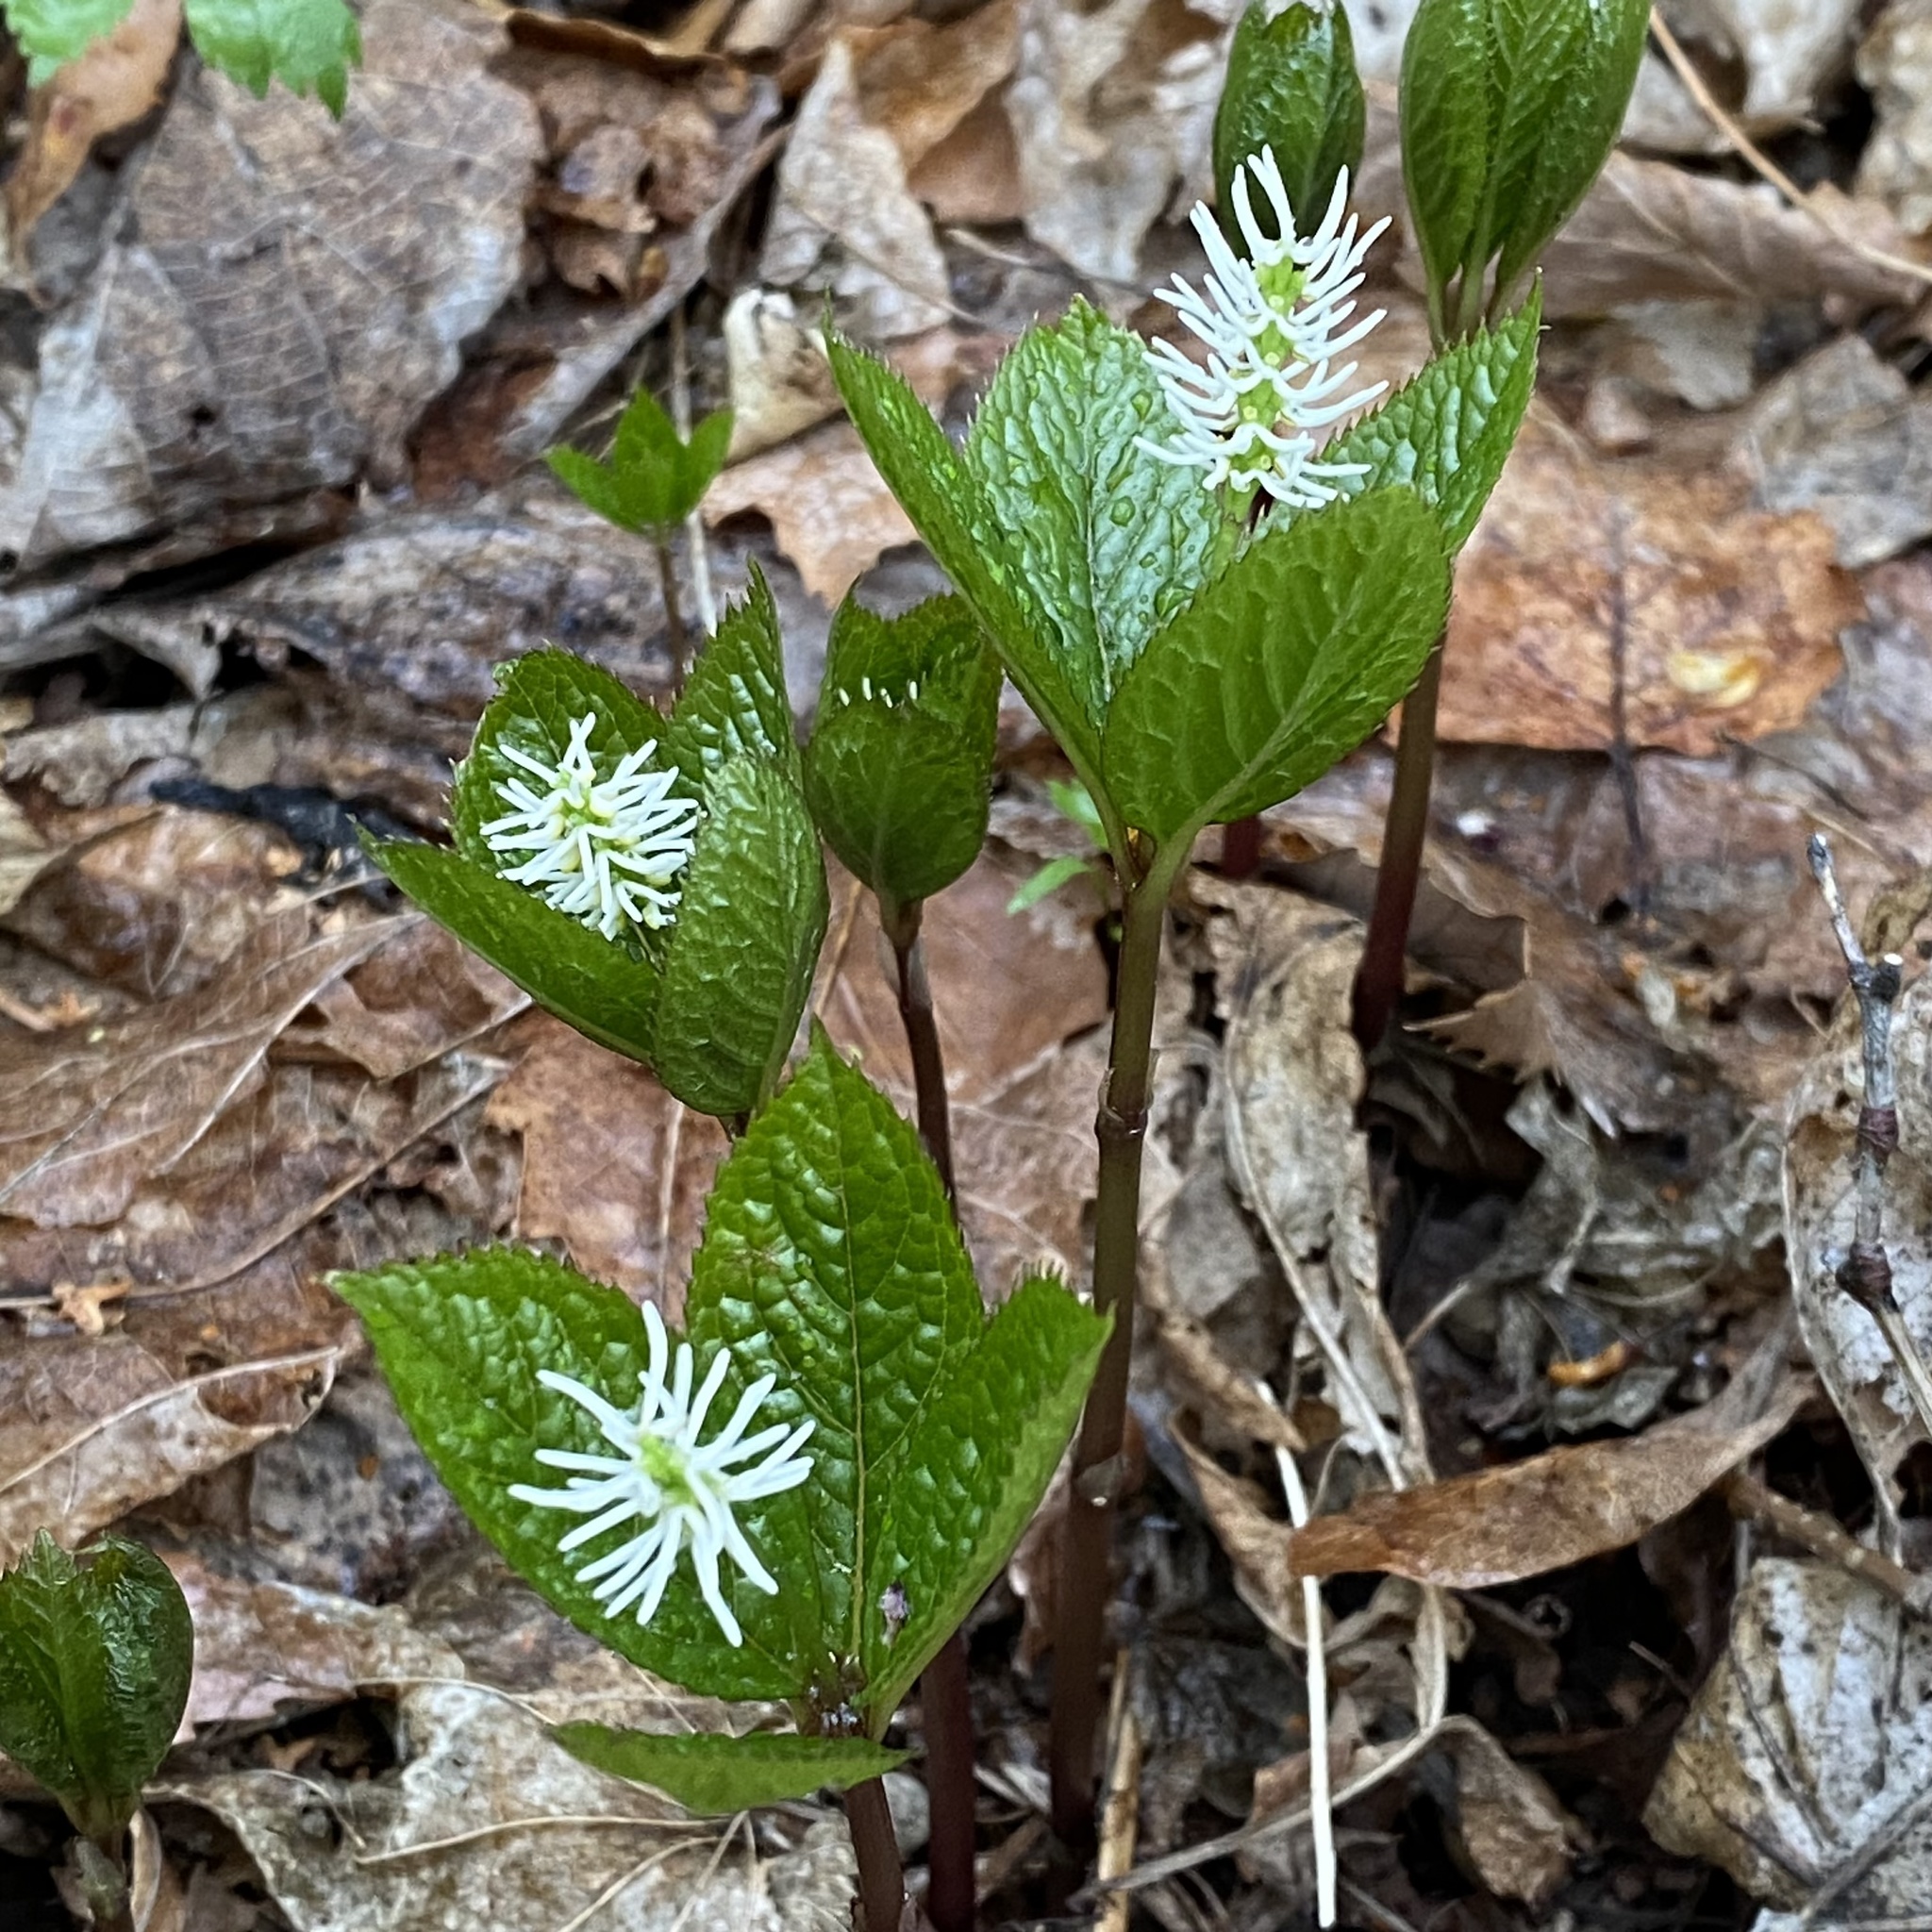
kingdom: Plantae
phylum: Tracheophyta
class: Magnoliopsida
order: Chloranthales
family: Chloranthaceae
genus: Chloranthus
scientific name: Chloranthus quadrifolius
